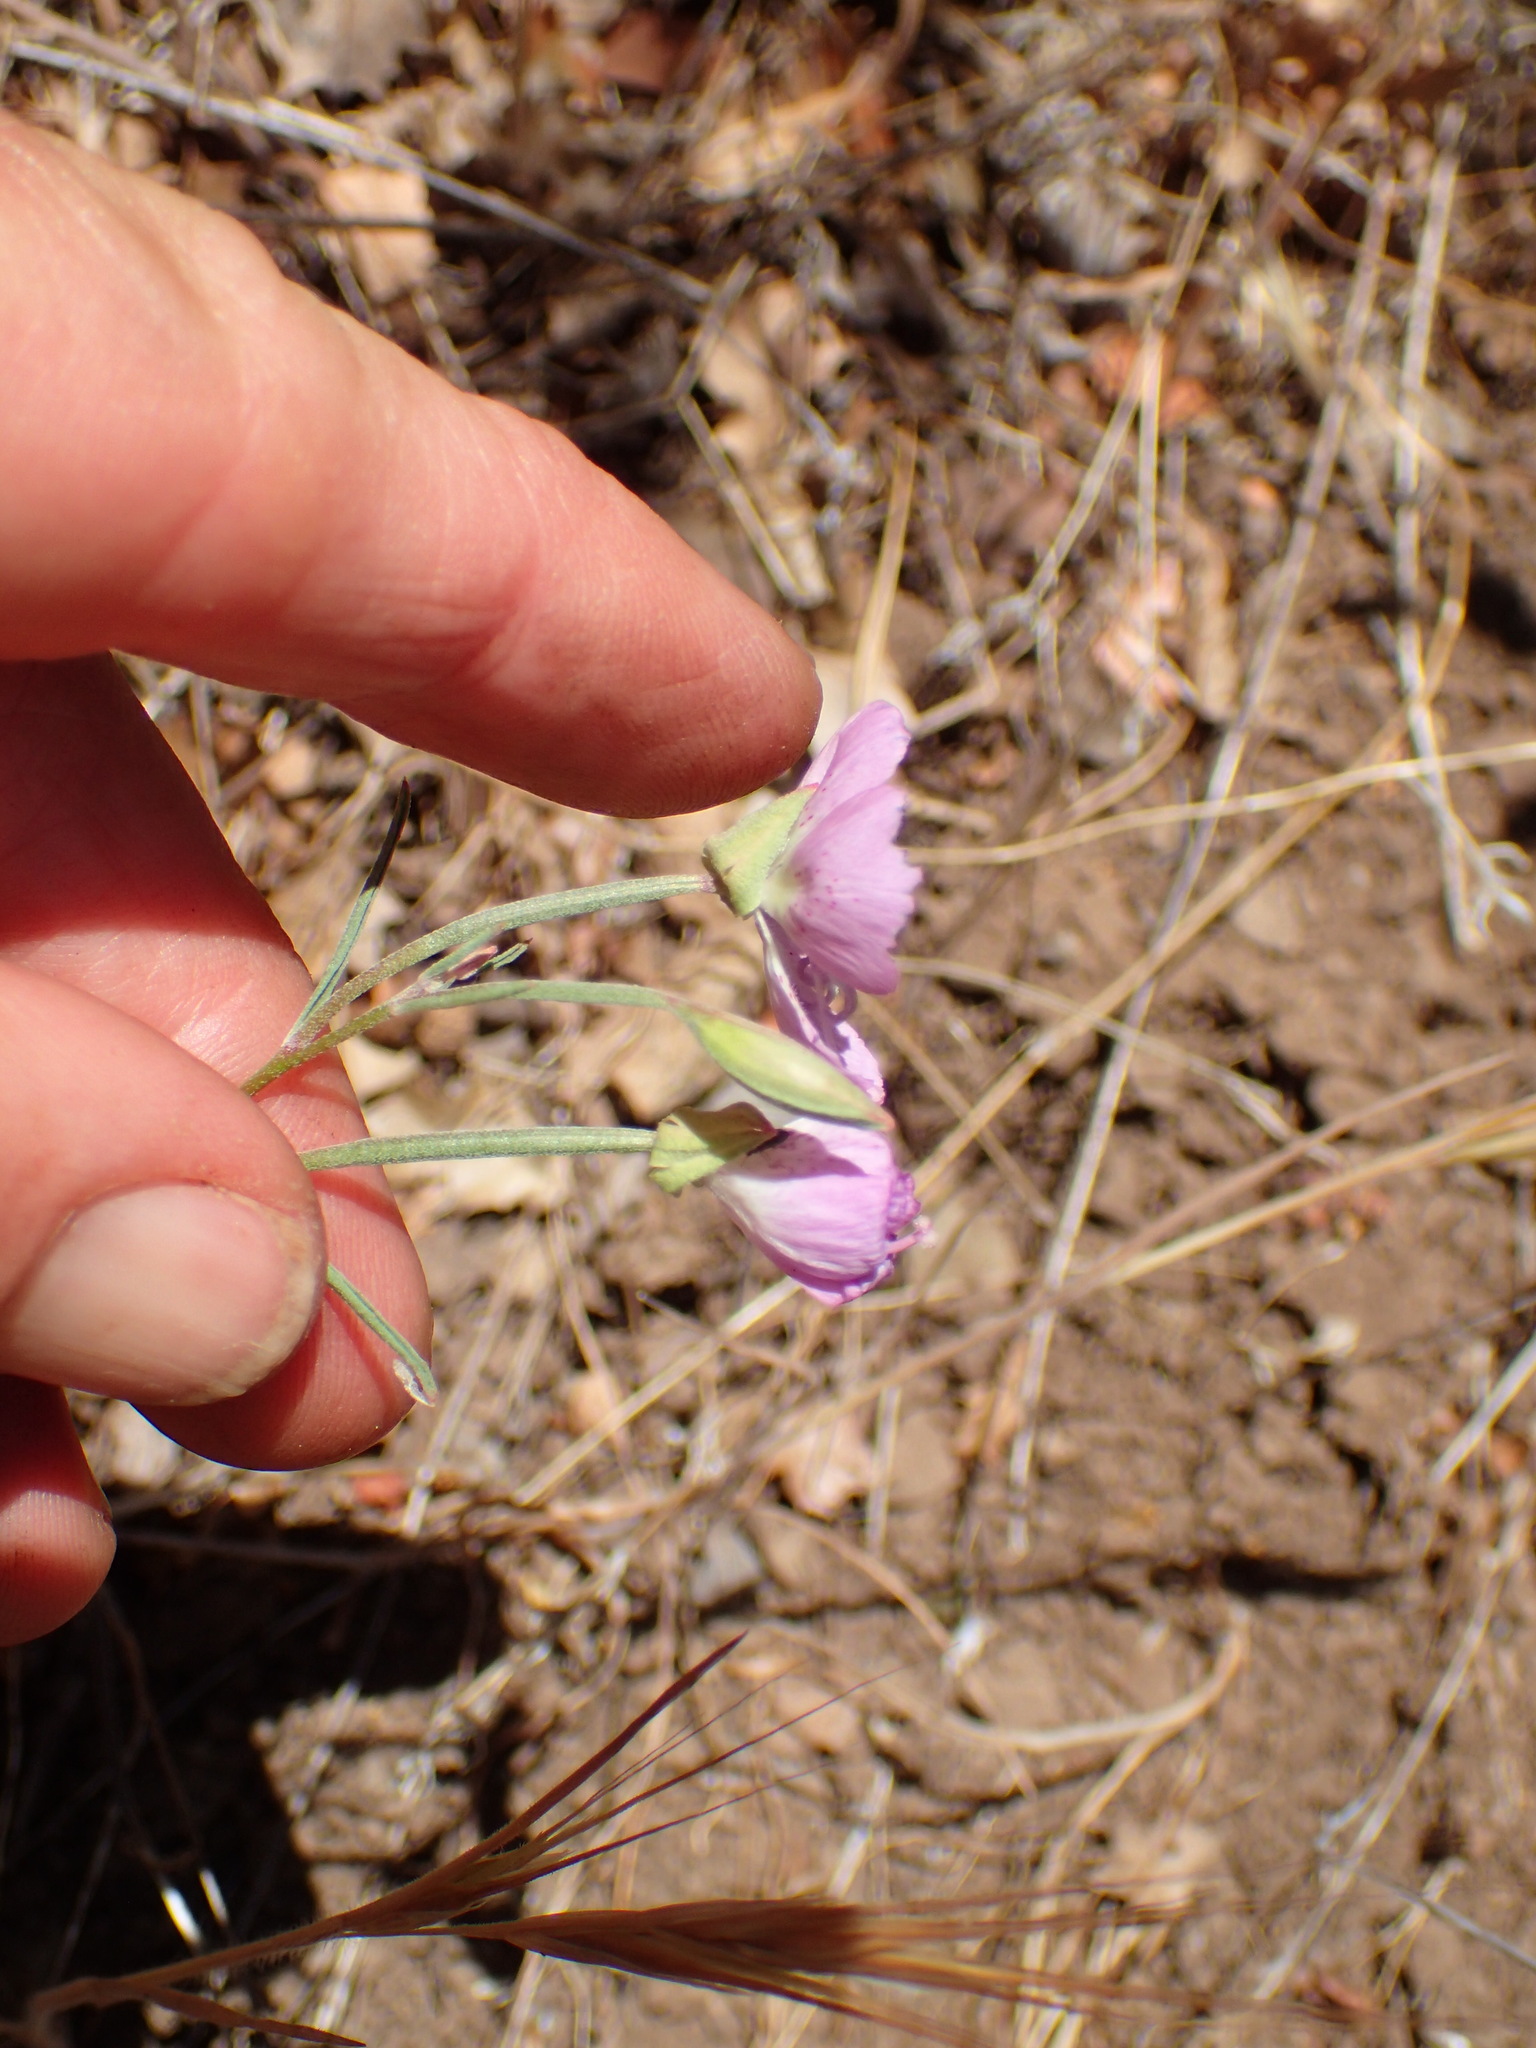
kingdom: Plantae
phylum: Tracheophyta
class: Magnoliopsida
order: Myrtales
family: Onagraceae
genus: Clarkia
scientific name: Clarkia bottae
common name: Punch-bowl godetia
